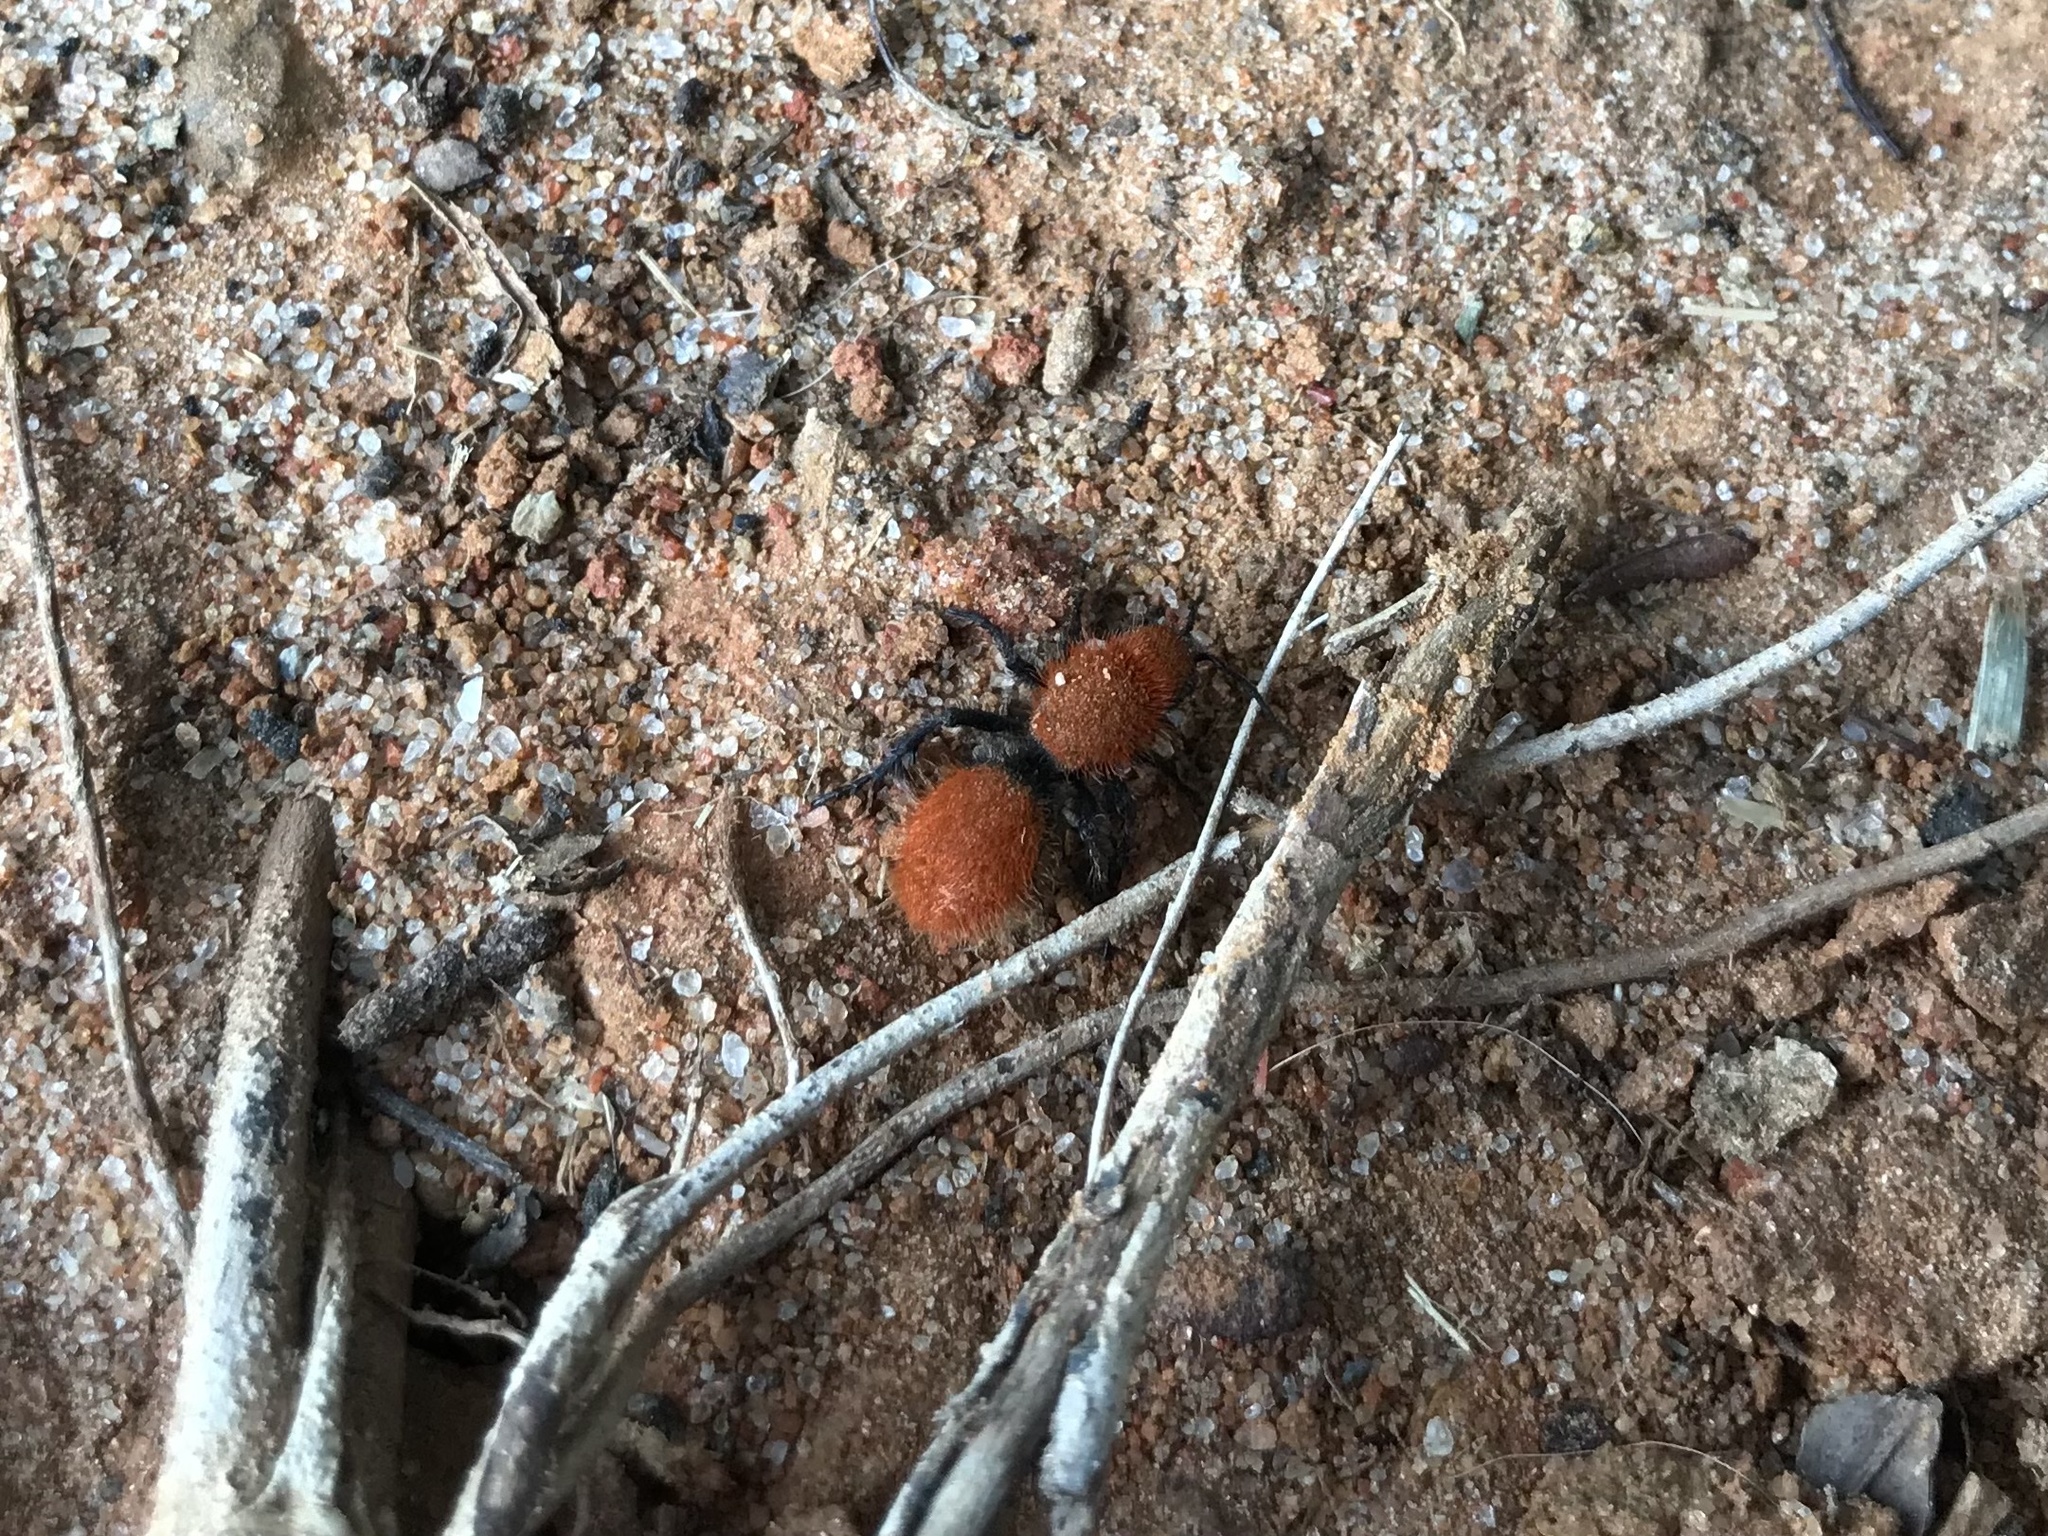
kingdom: Animalia
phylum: Arthropoda
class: Insecta
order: Hymenoptera
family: Mutillidae
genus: Dasymutilla
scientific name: Dasymutilla vestita
